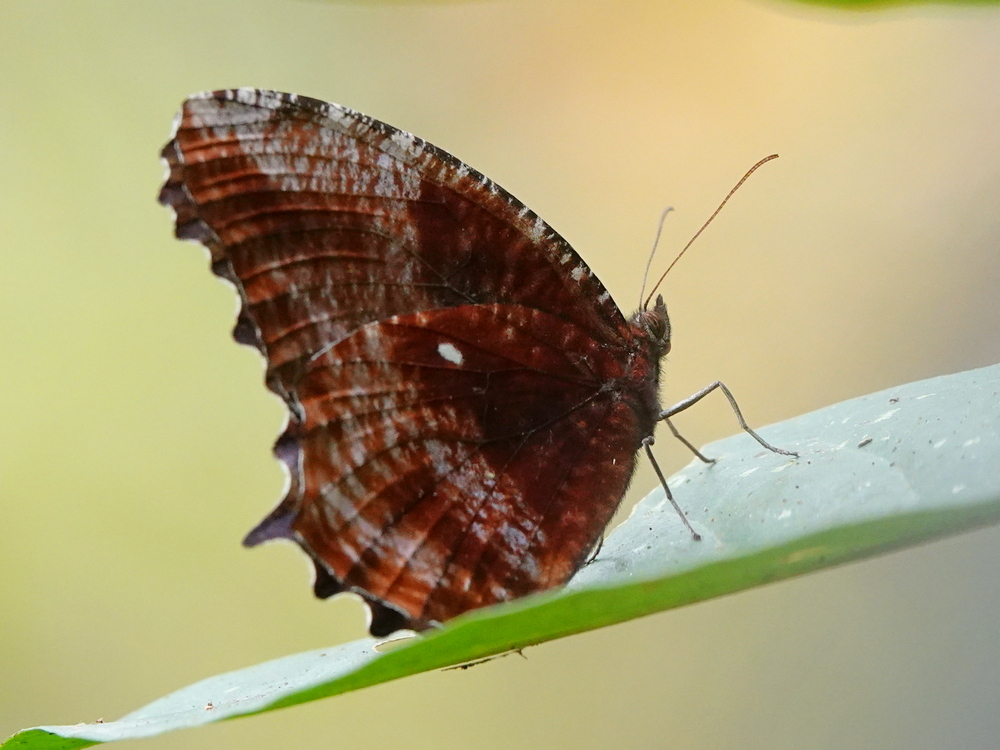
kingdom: Animalia
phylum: Arthropoda
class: Insecta
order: Lepidoptera
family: Nymphalidae
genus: Elymnias
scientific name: Elymnias pealii
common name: Phallic palmfly
